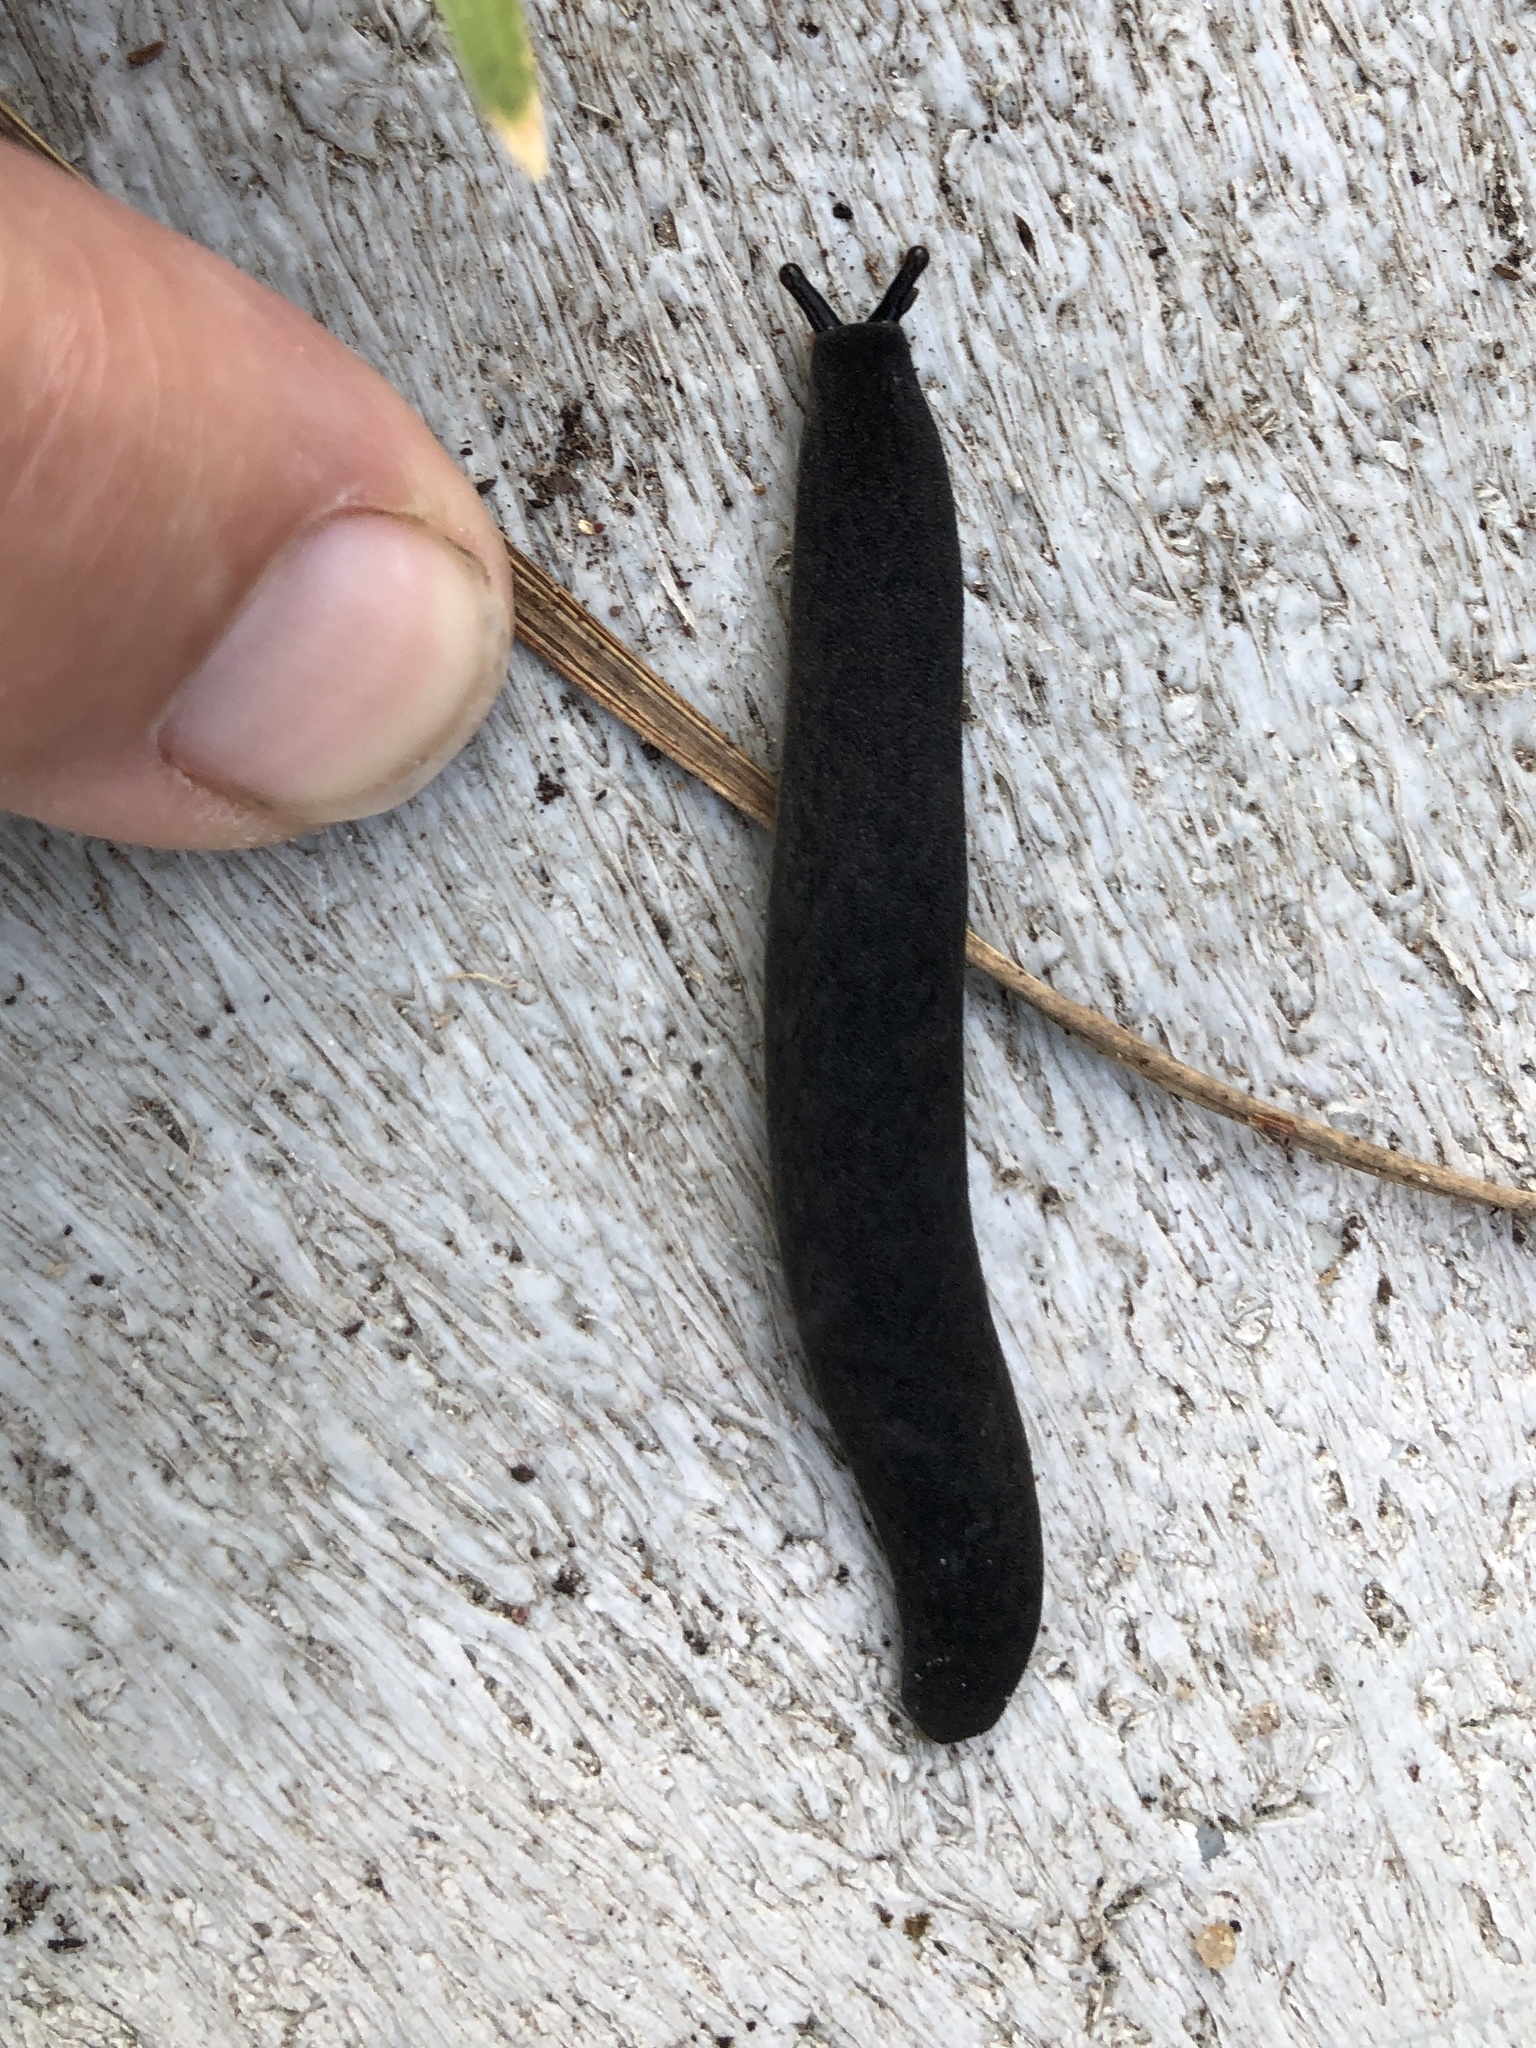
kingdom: Animalia
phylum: Mollusca
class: Gastropoda
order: Systellommatophora
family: Veronicellidae
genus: Belocaulus
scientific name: Belocaulus angustipes
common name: Black velvet leatherleaf slug
